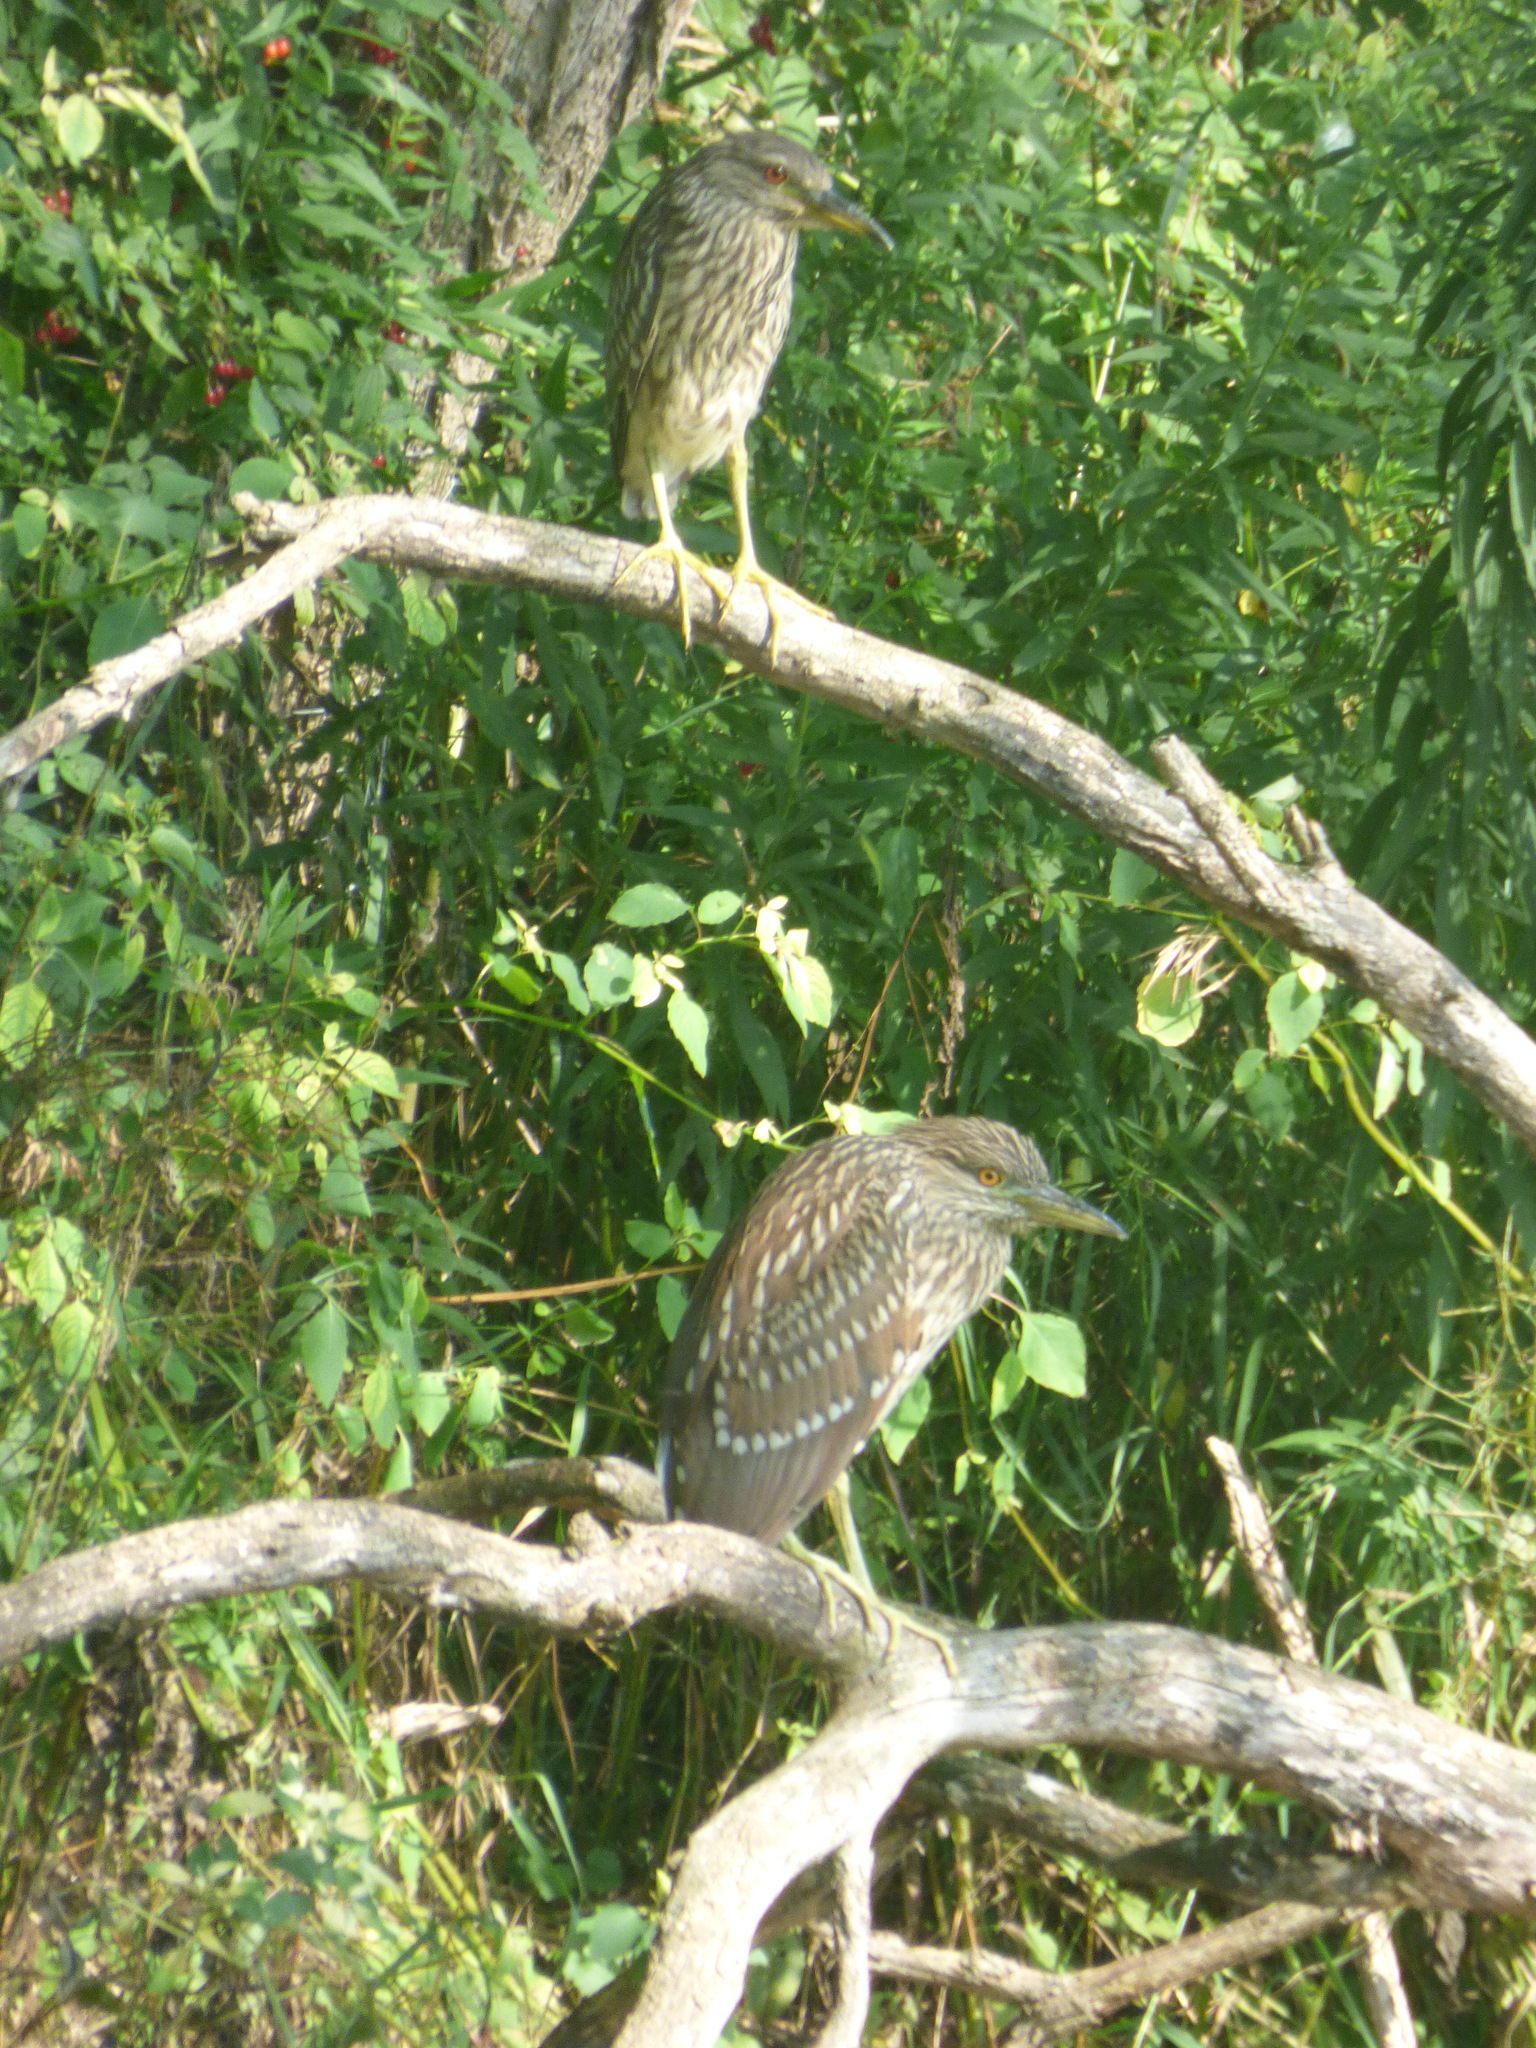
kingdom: Animalia
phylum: Chordata
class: Aves
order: Pelecaniformes
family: Ardeidae
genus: Nycticorax
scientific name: Nycticorax nycticorax
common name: Black-crowned night heron
